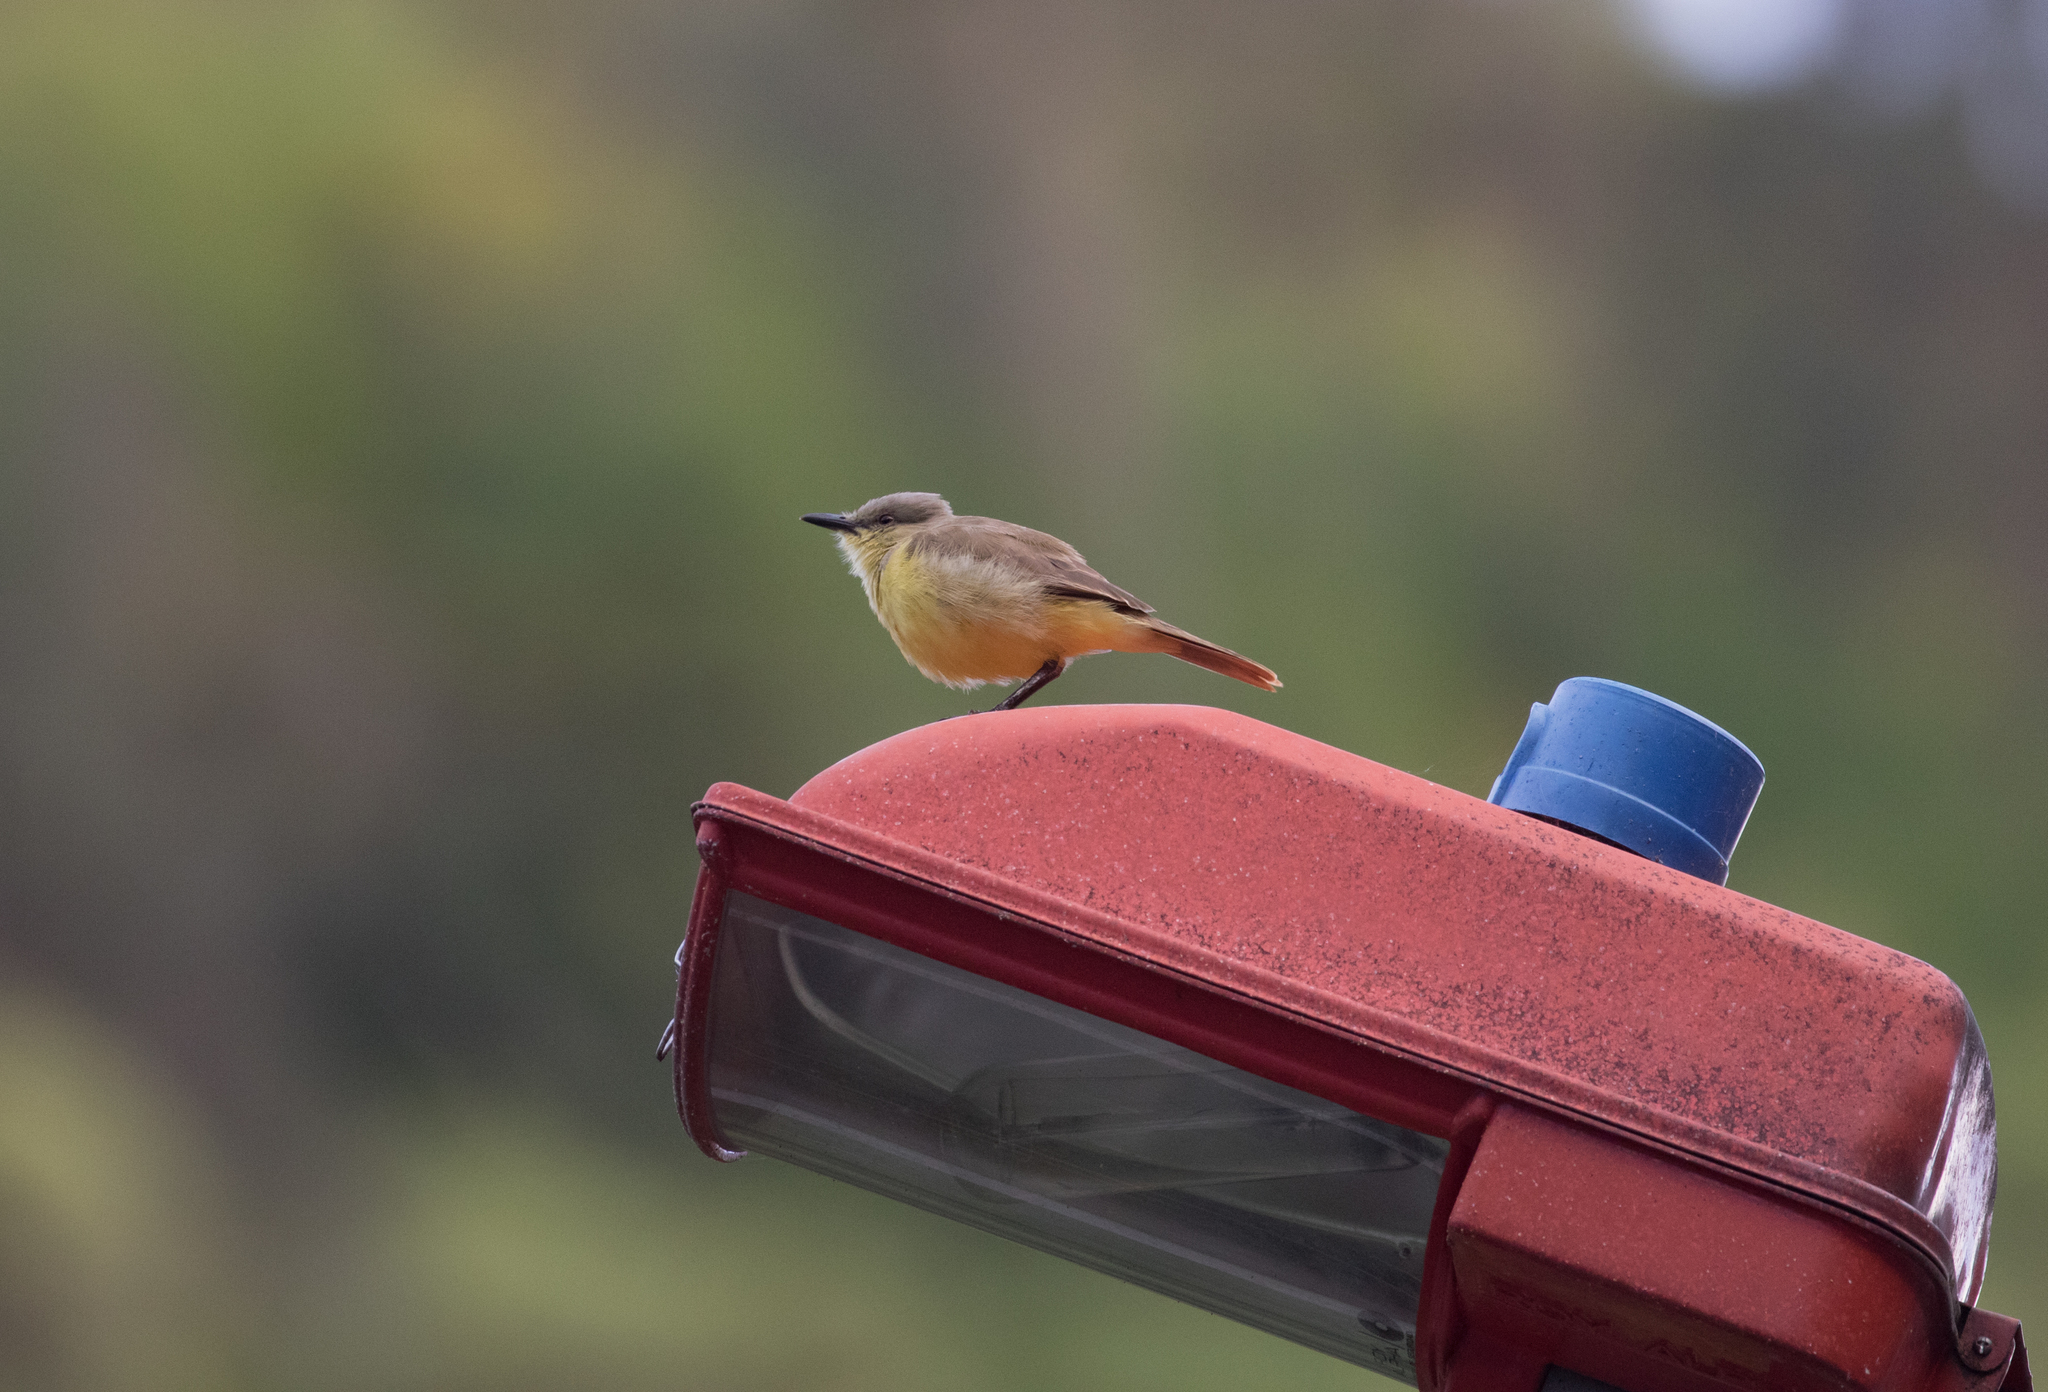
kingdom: Animalia
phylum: Chordata
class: Aves
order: Passeriformes
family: Tyrannidae
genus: Machetornis
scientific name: Machetornis rixosa
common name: Cattle tyrant
